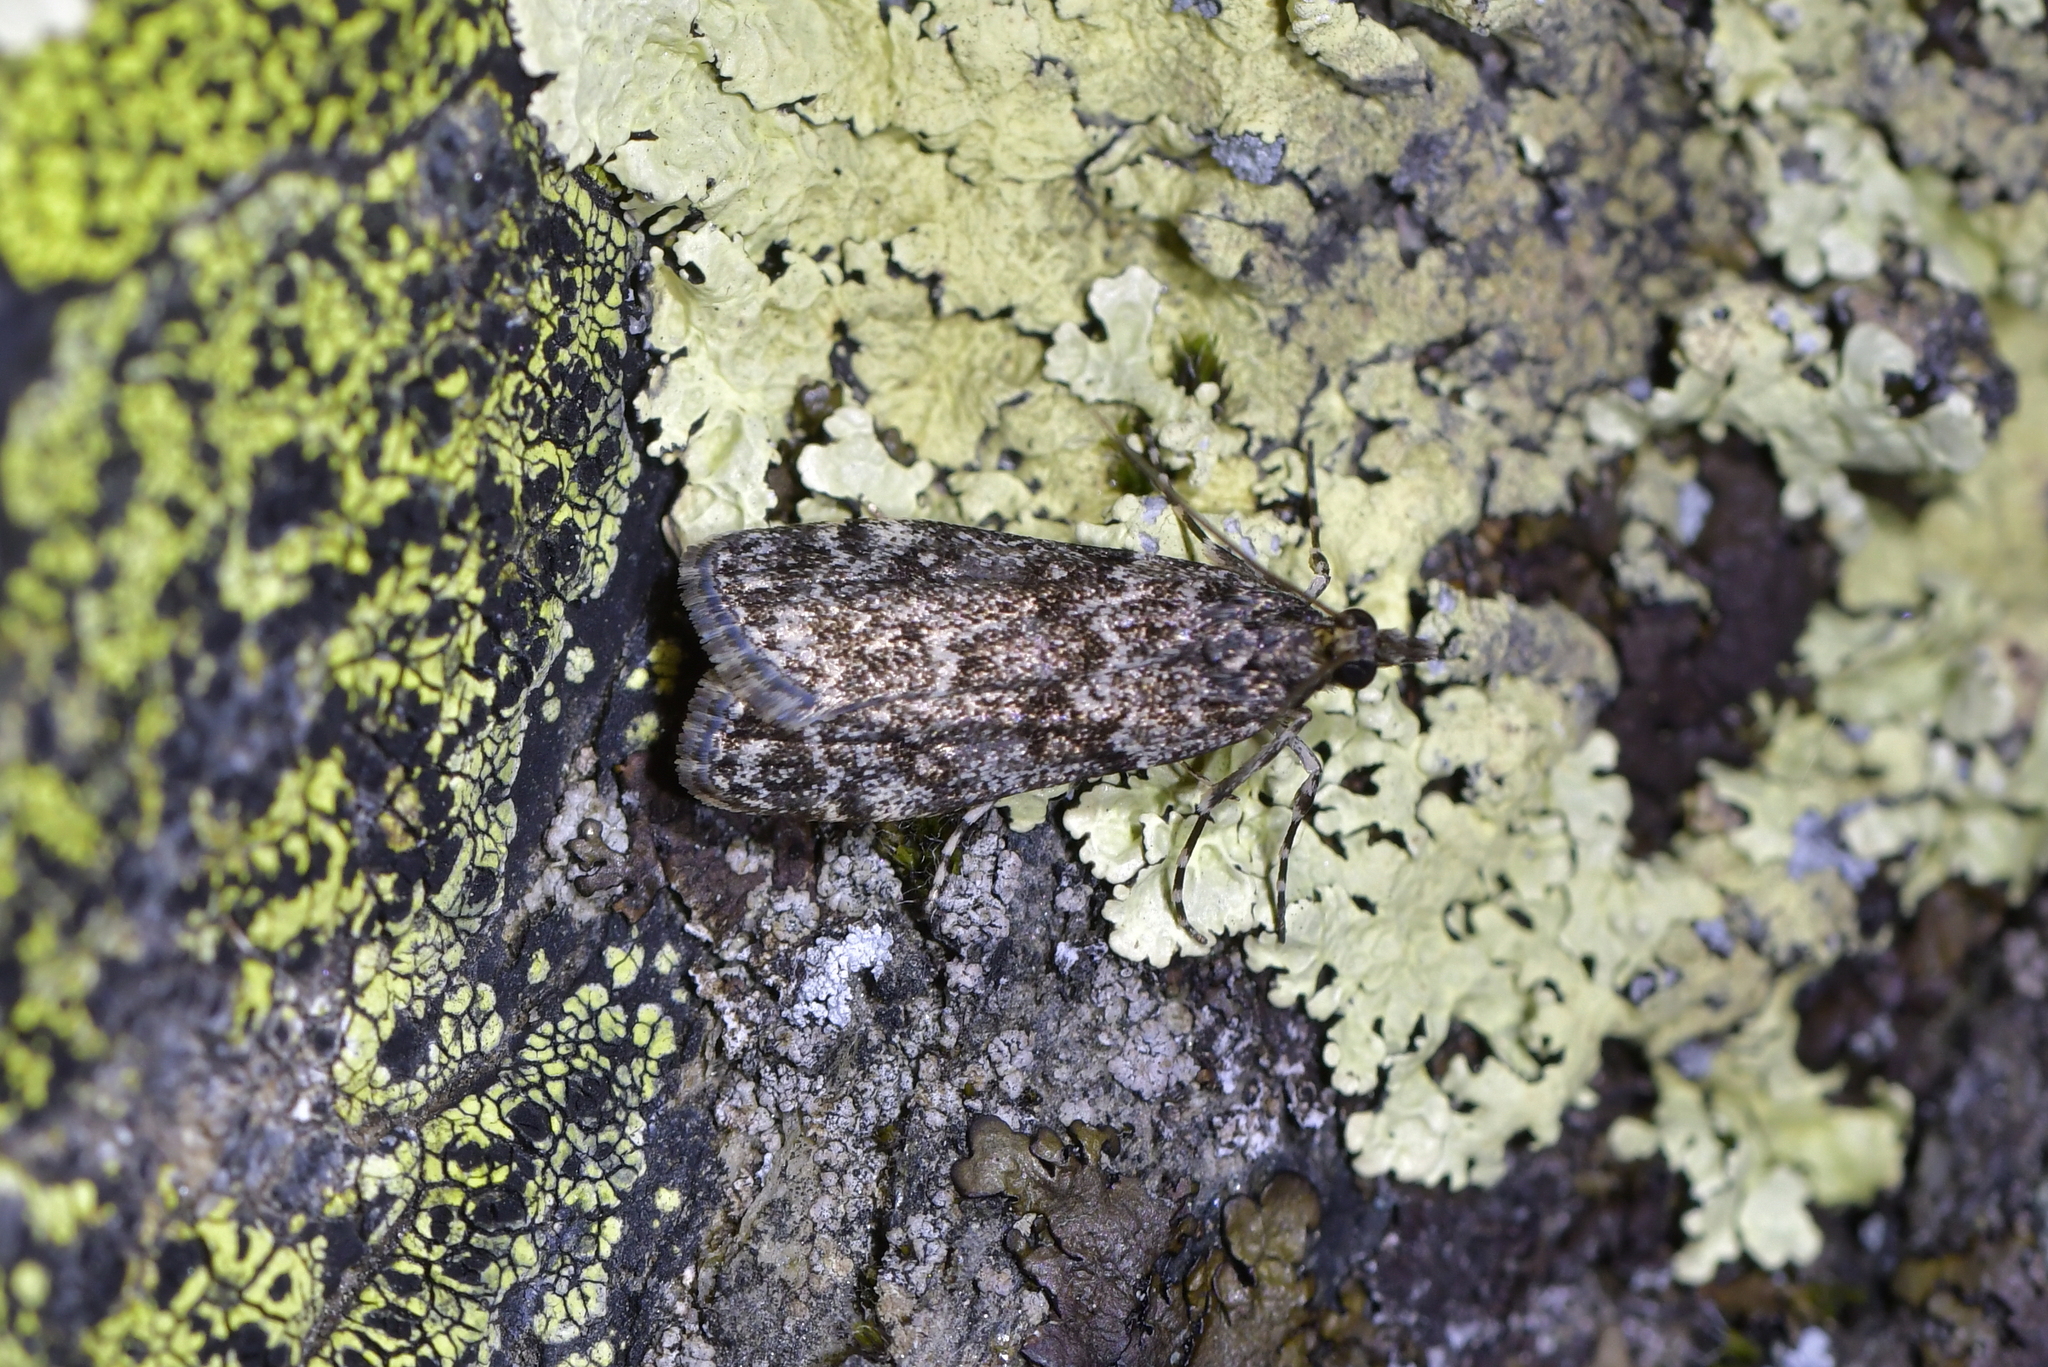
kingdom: Animalia
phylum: Arthropoda
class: Insecta
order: Lepidoptera
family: Crambidae
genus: Eudonia
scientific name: Eudonia philerga
